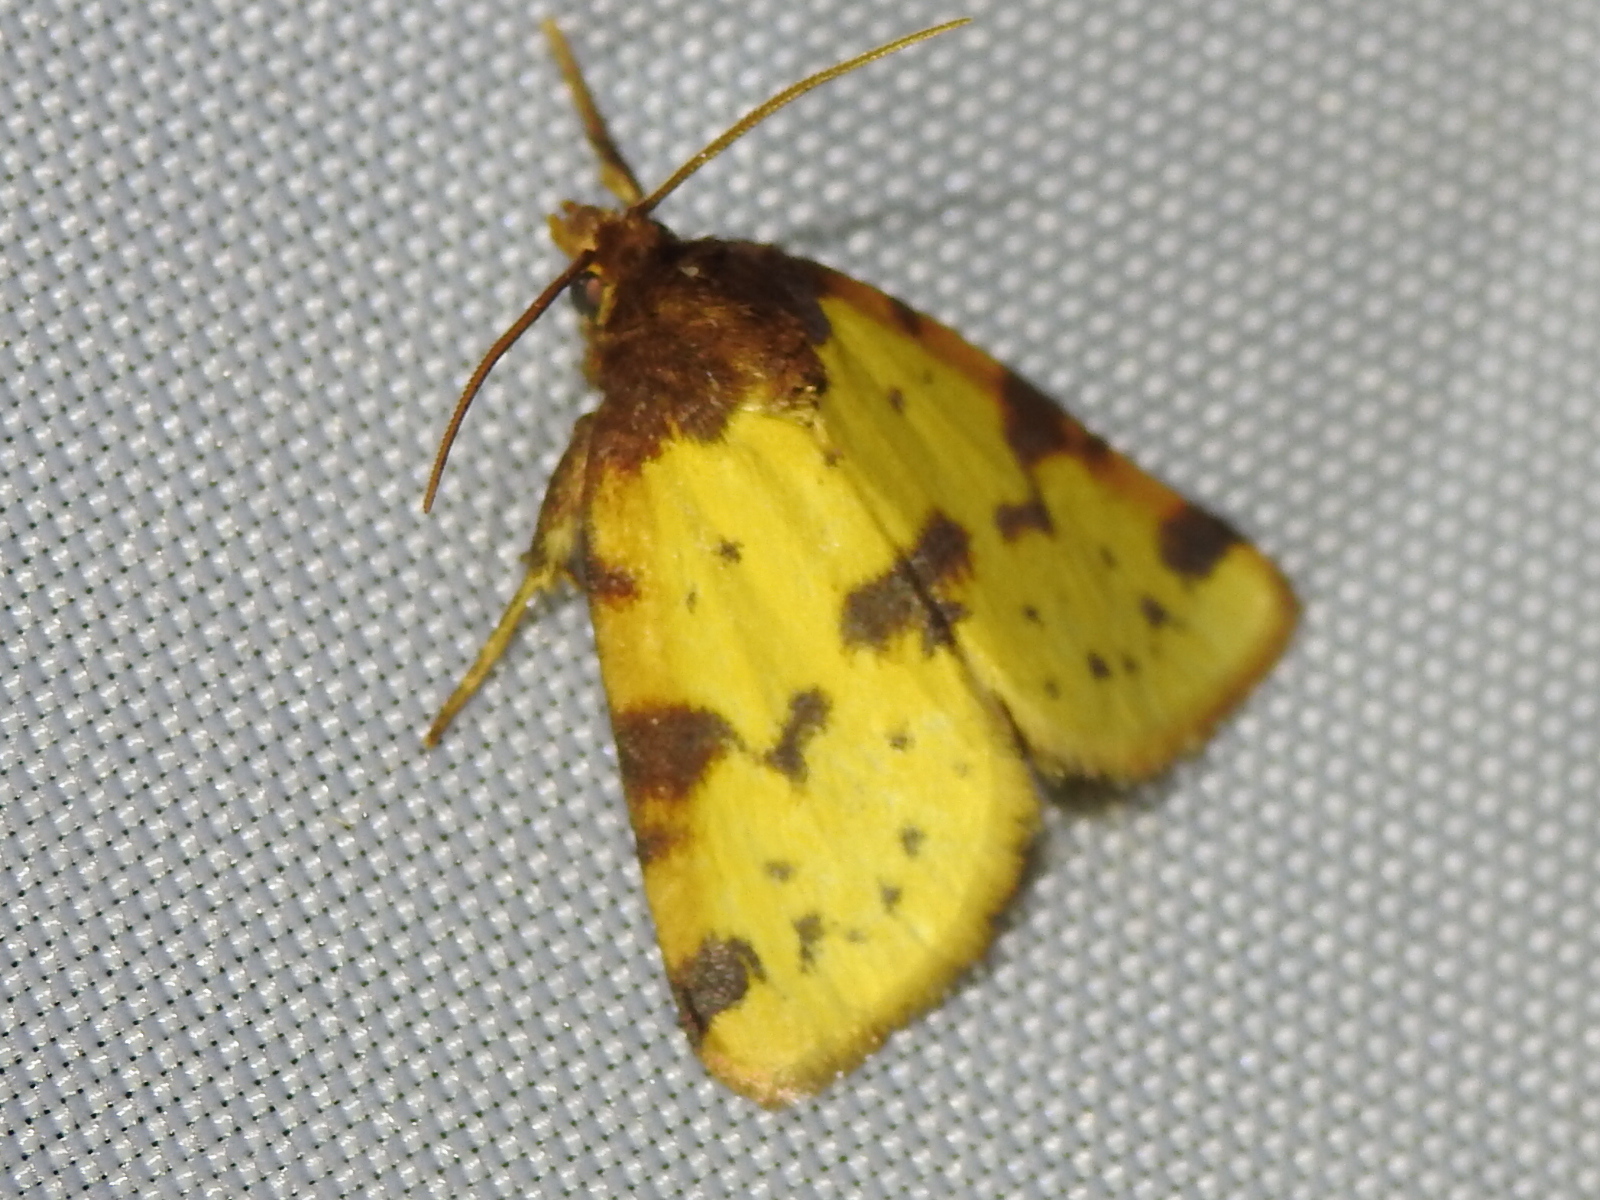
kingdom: Animalia
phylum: Arthropoda
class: Insecta
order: Lepidoptera
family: Noctuidae
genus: Azenia
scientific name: Azenia obtusa
